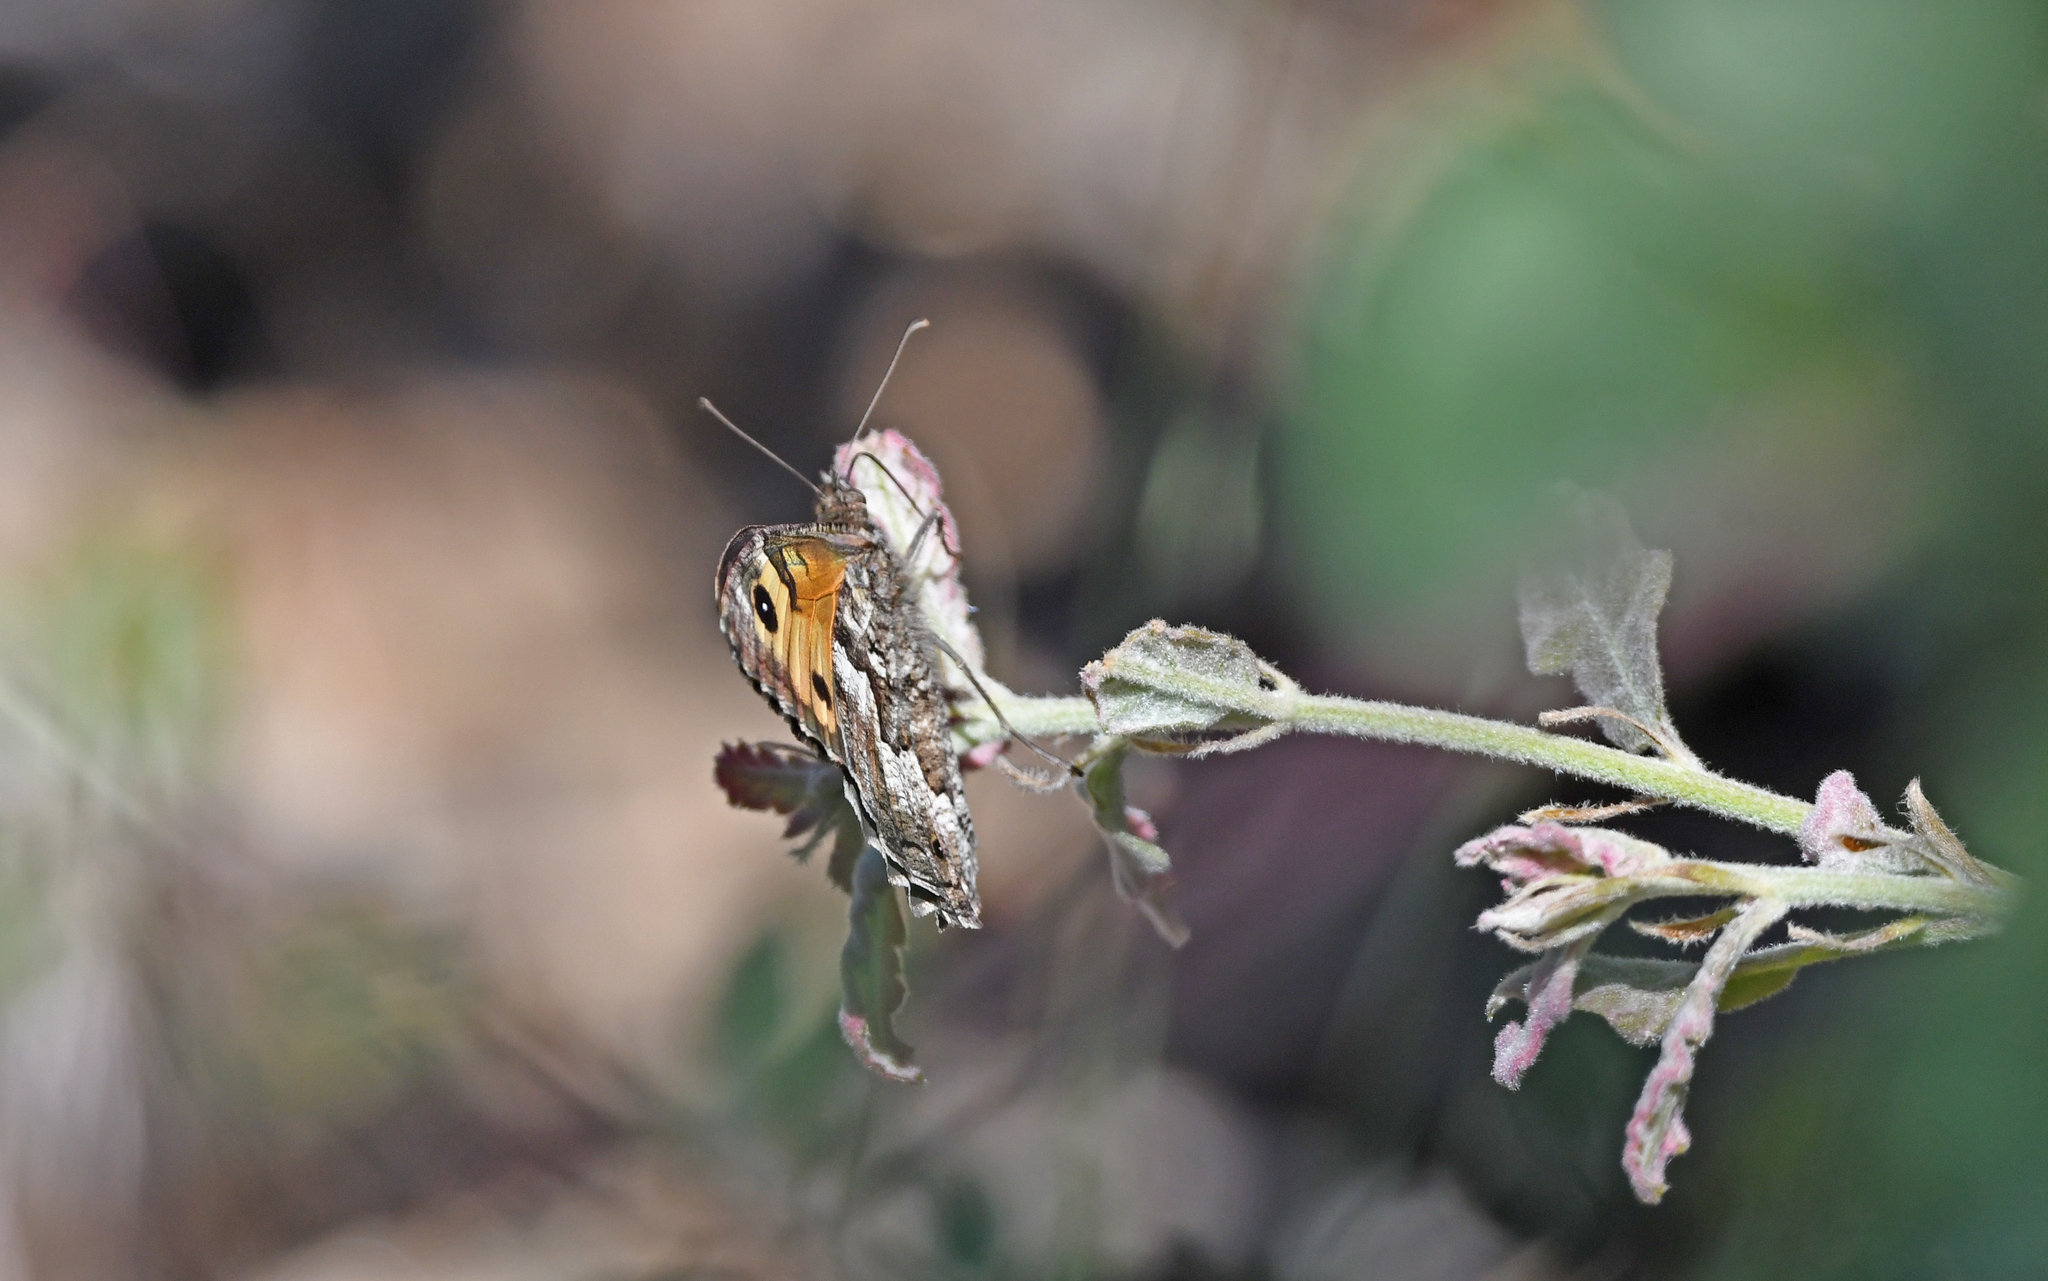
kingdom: Animalia
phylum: Arthropoda
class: Insecta
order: Lepidoptera
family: Nymphalidae
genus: Hipparchia
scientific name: Hipparchia semele
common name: Grayling
